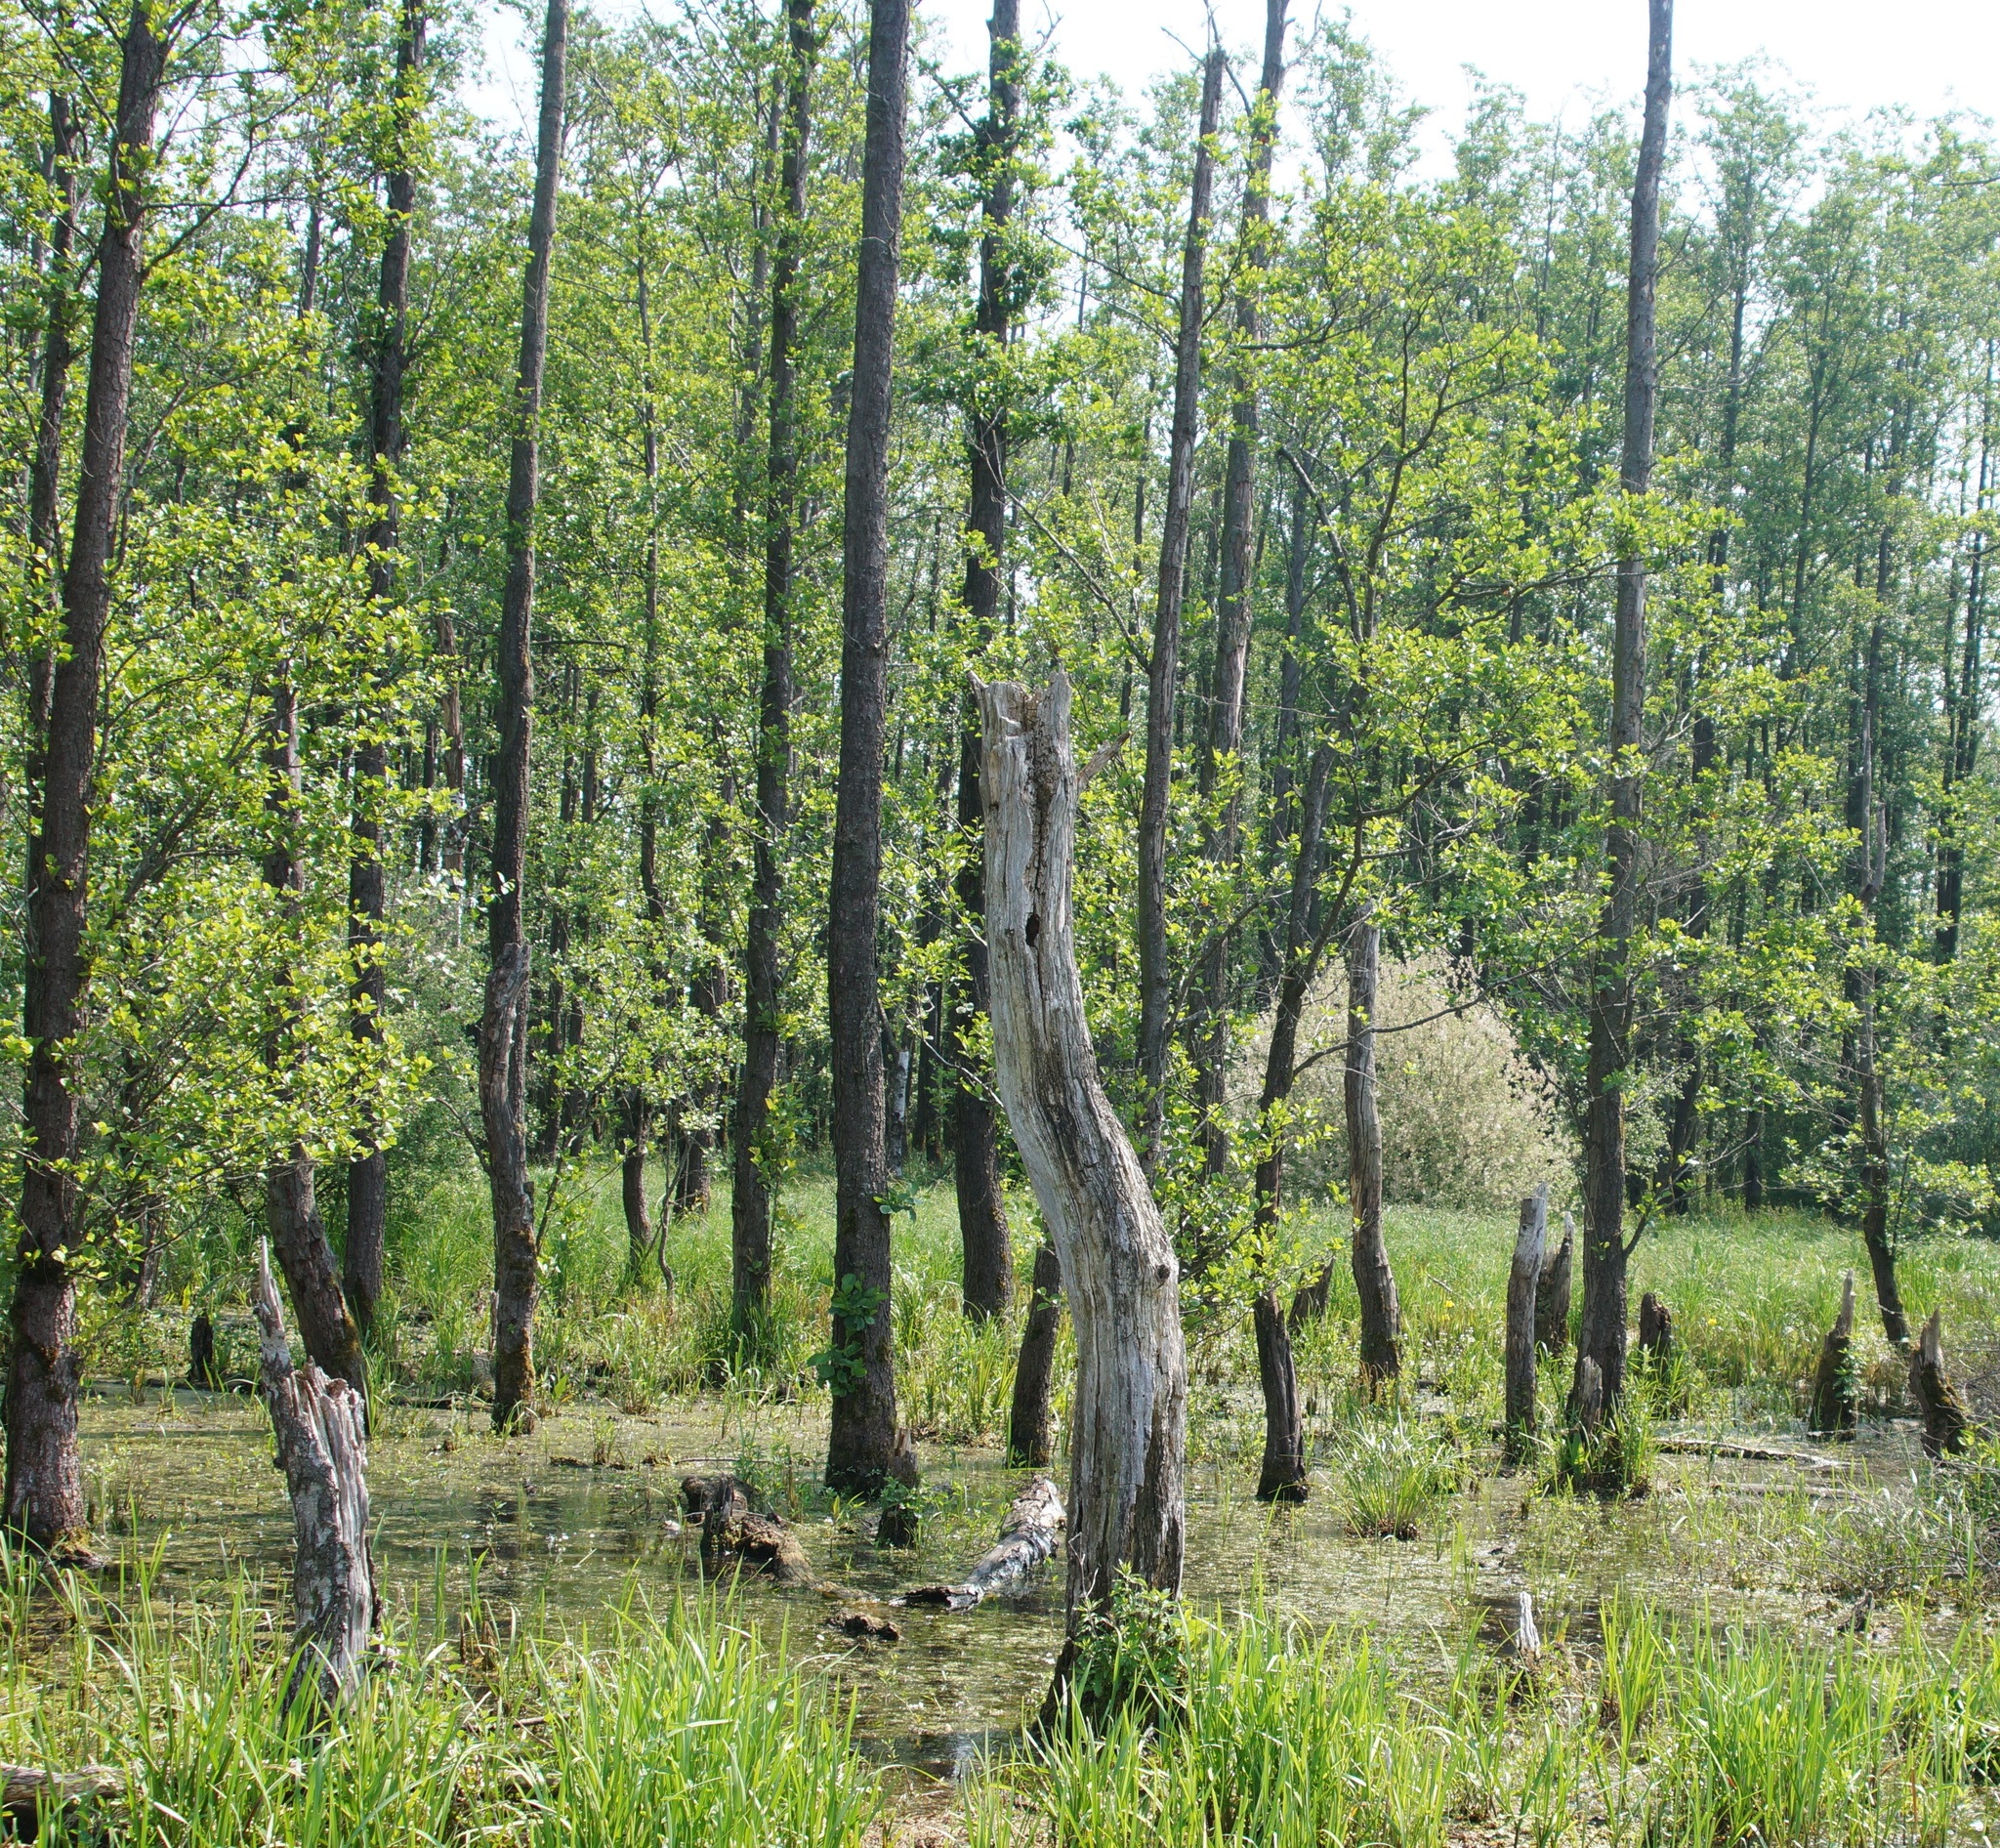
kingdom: Plantae
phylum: Tracheophyta
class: Magnoliopsida
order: Fagales
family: Betulaceae
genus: Alnus
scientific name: Alnus glutinosa
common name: Black alder
